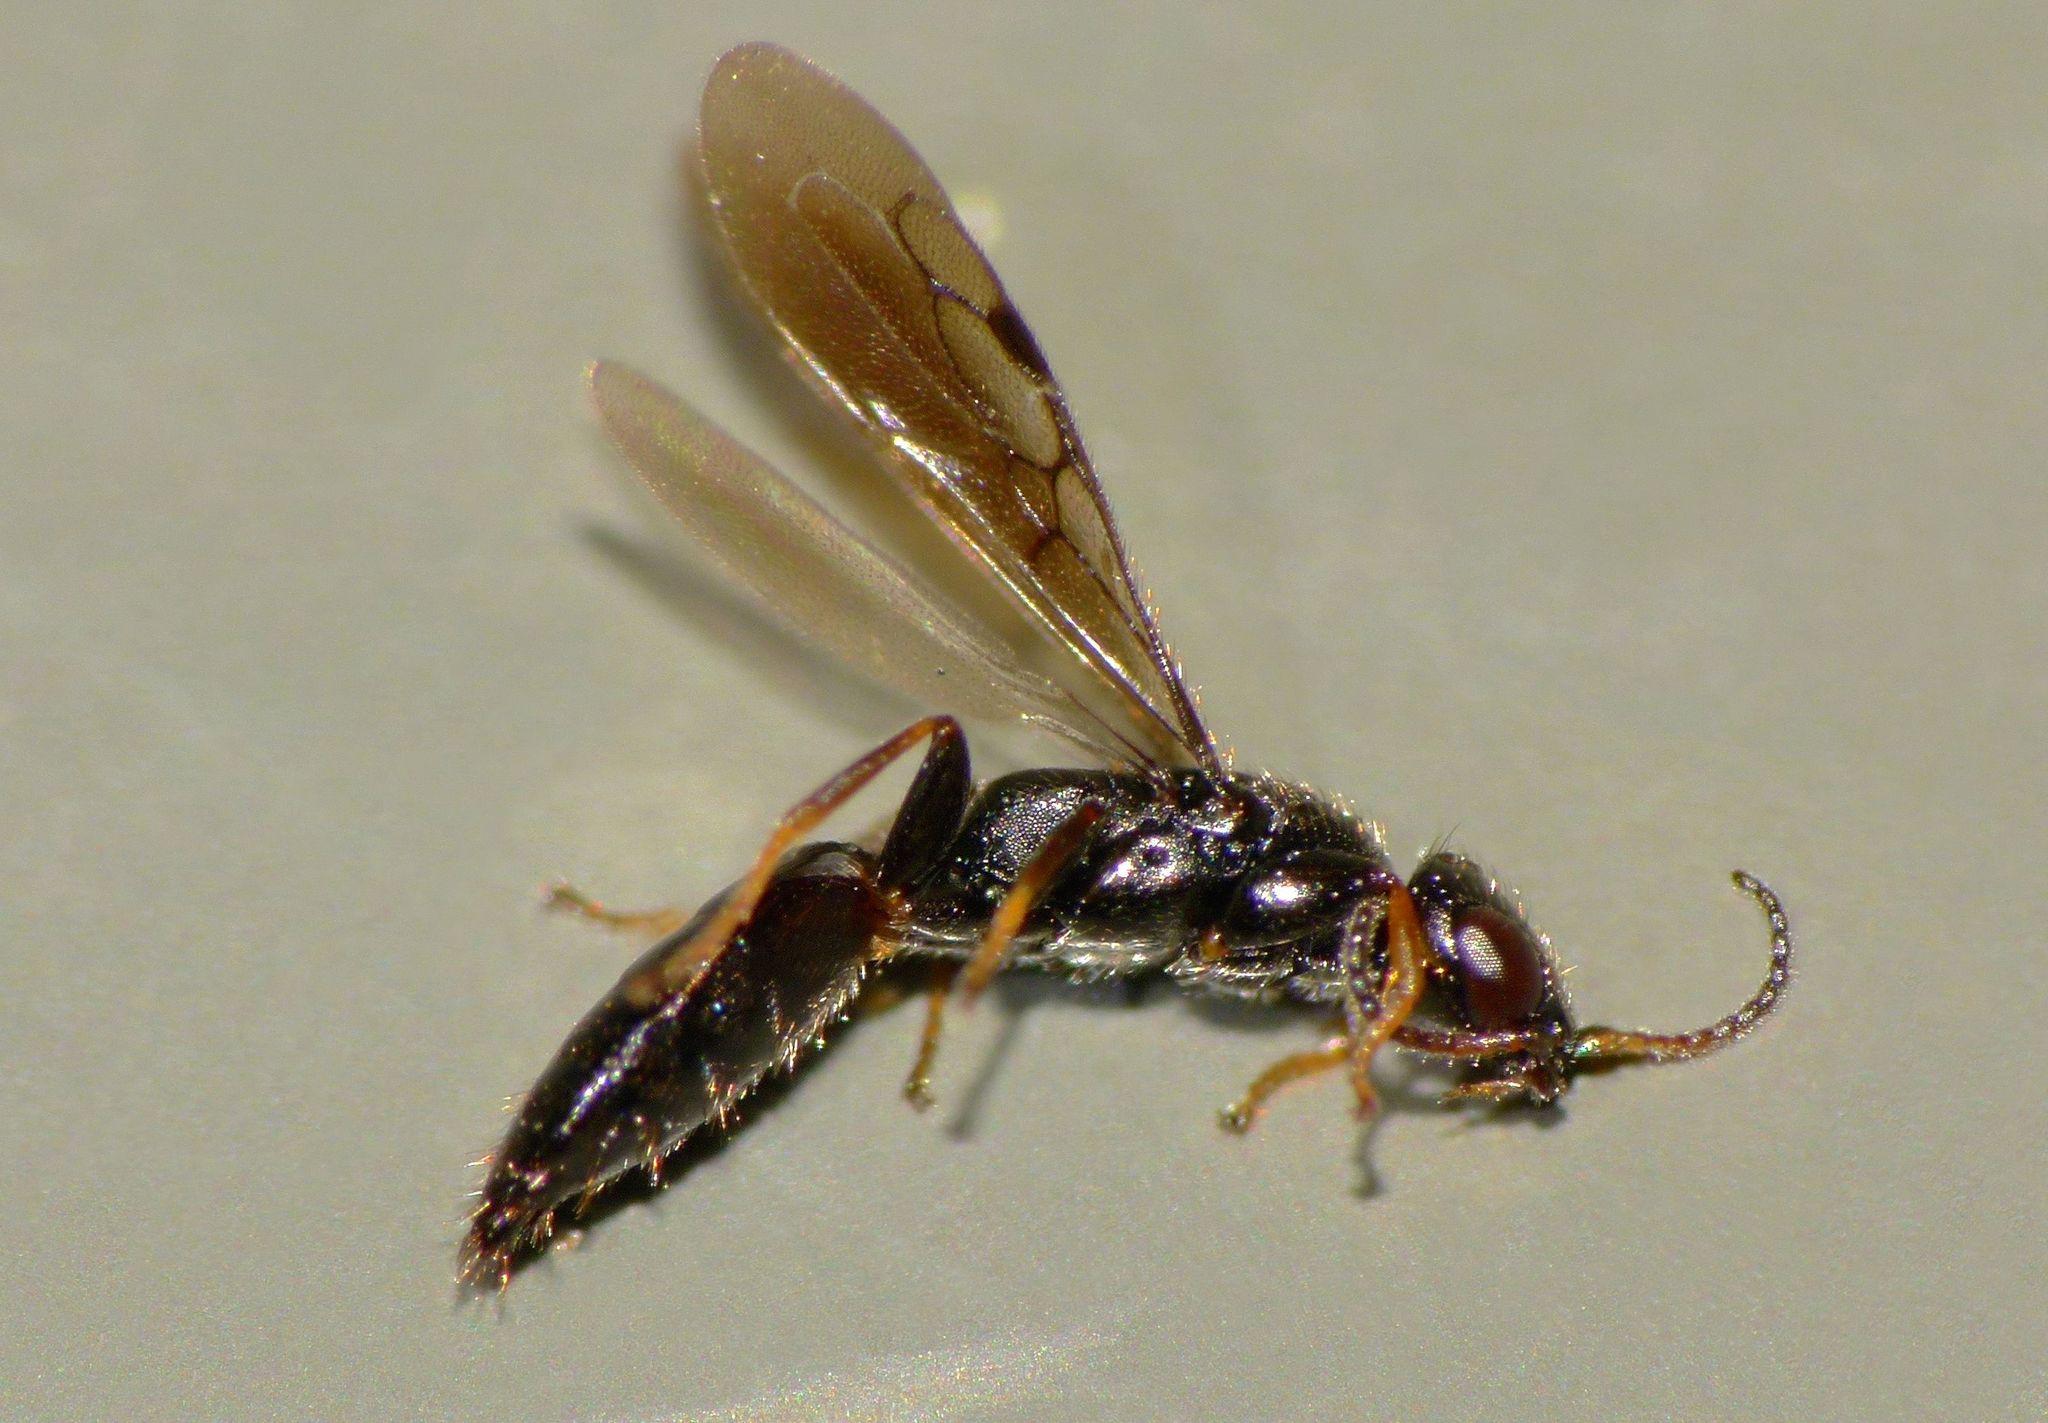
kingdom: Animalia
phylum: Arthropoda
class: Insecta
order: Hymenoptera
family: Bethylidae
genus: Eupsenella
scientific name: Eupsenella insulana
